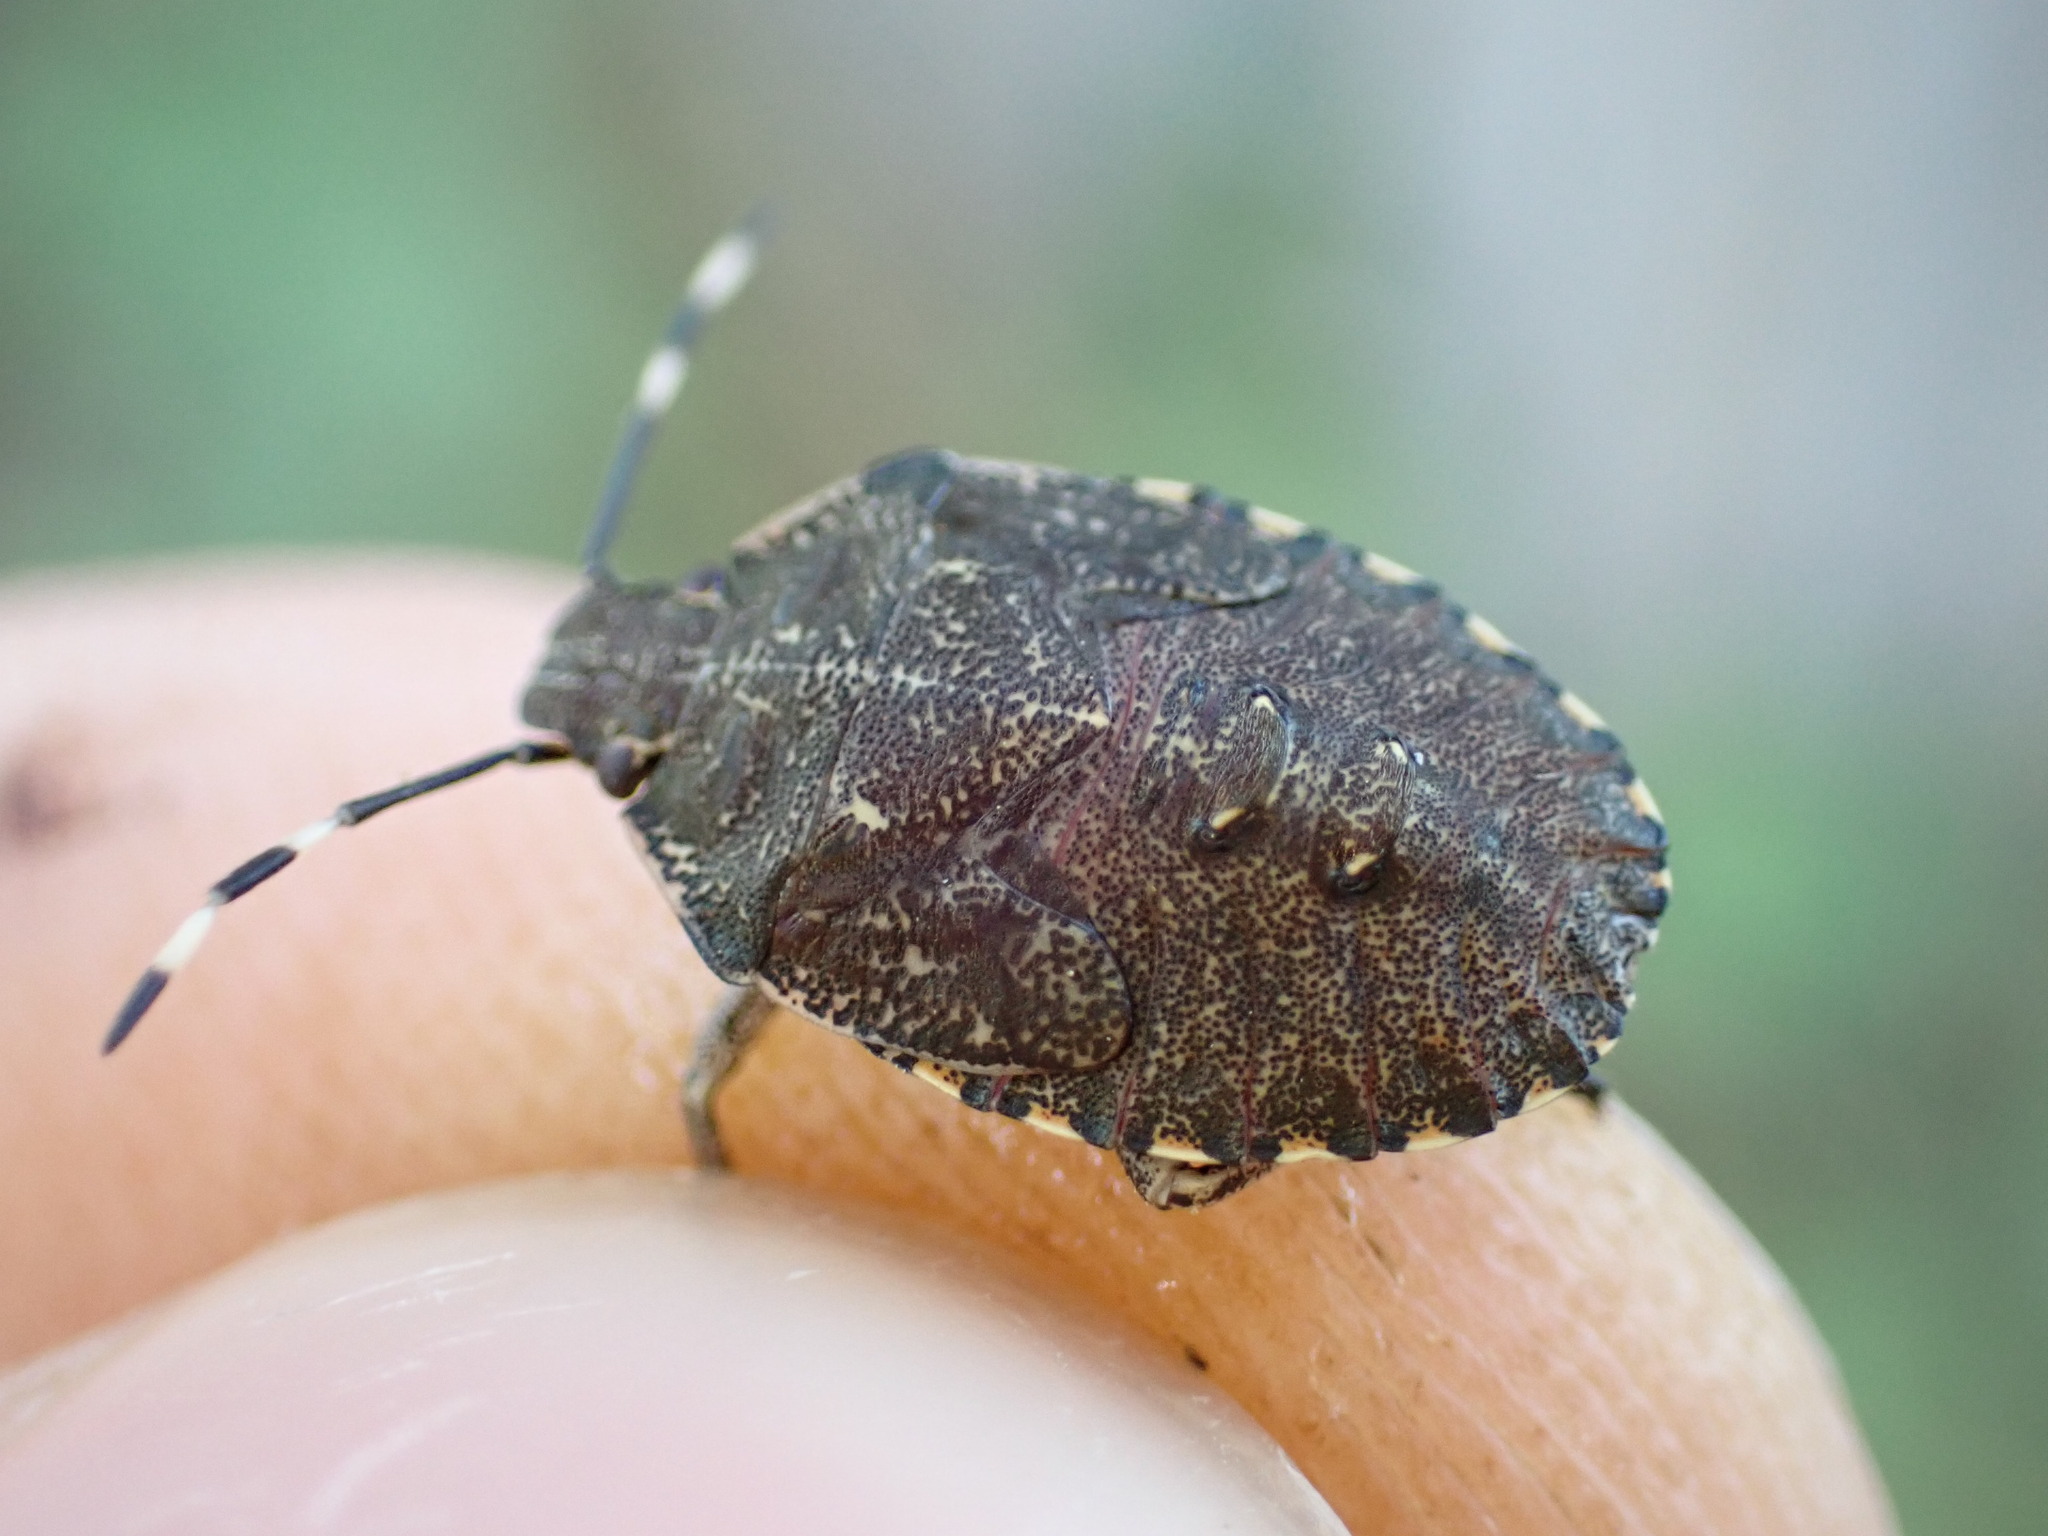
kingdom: Animalia
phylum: Arthropoda
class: Insecta
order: Hemiptera
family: Pentatomidae
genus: Rhaphigaster
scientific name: Rhaphigaster nebulosa
